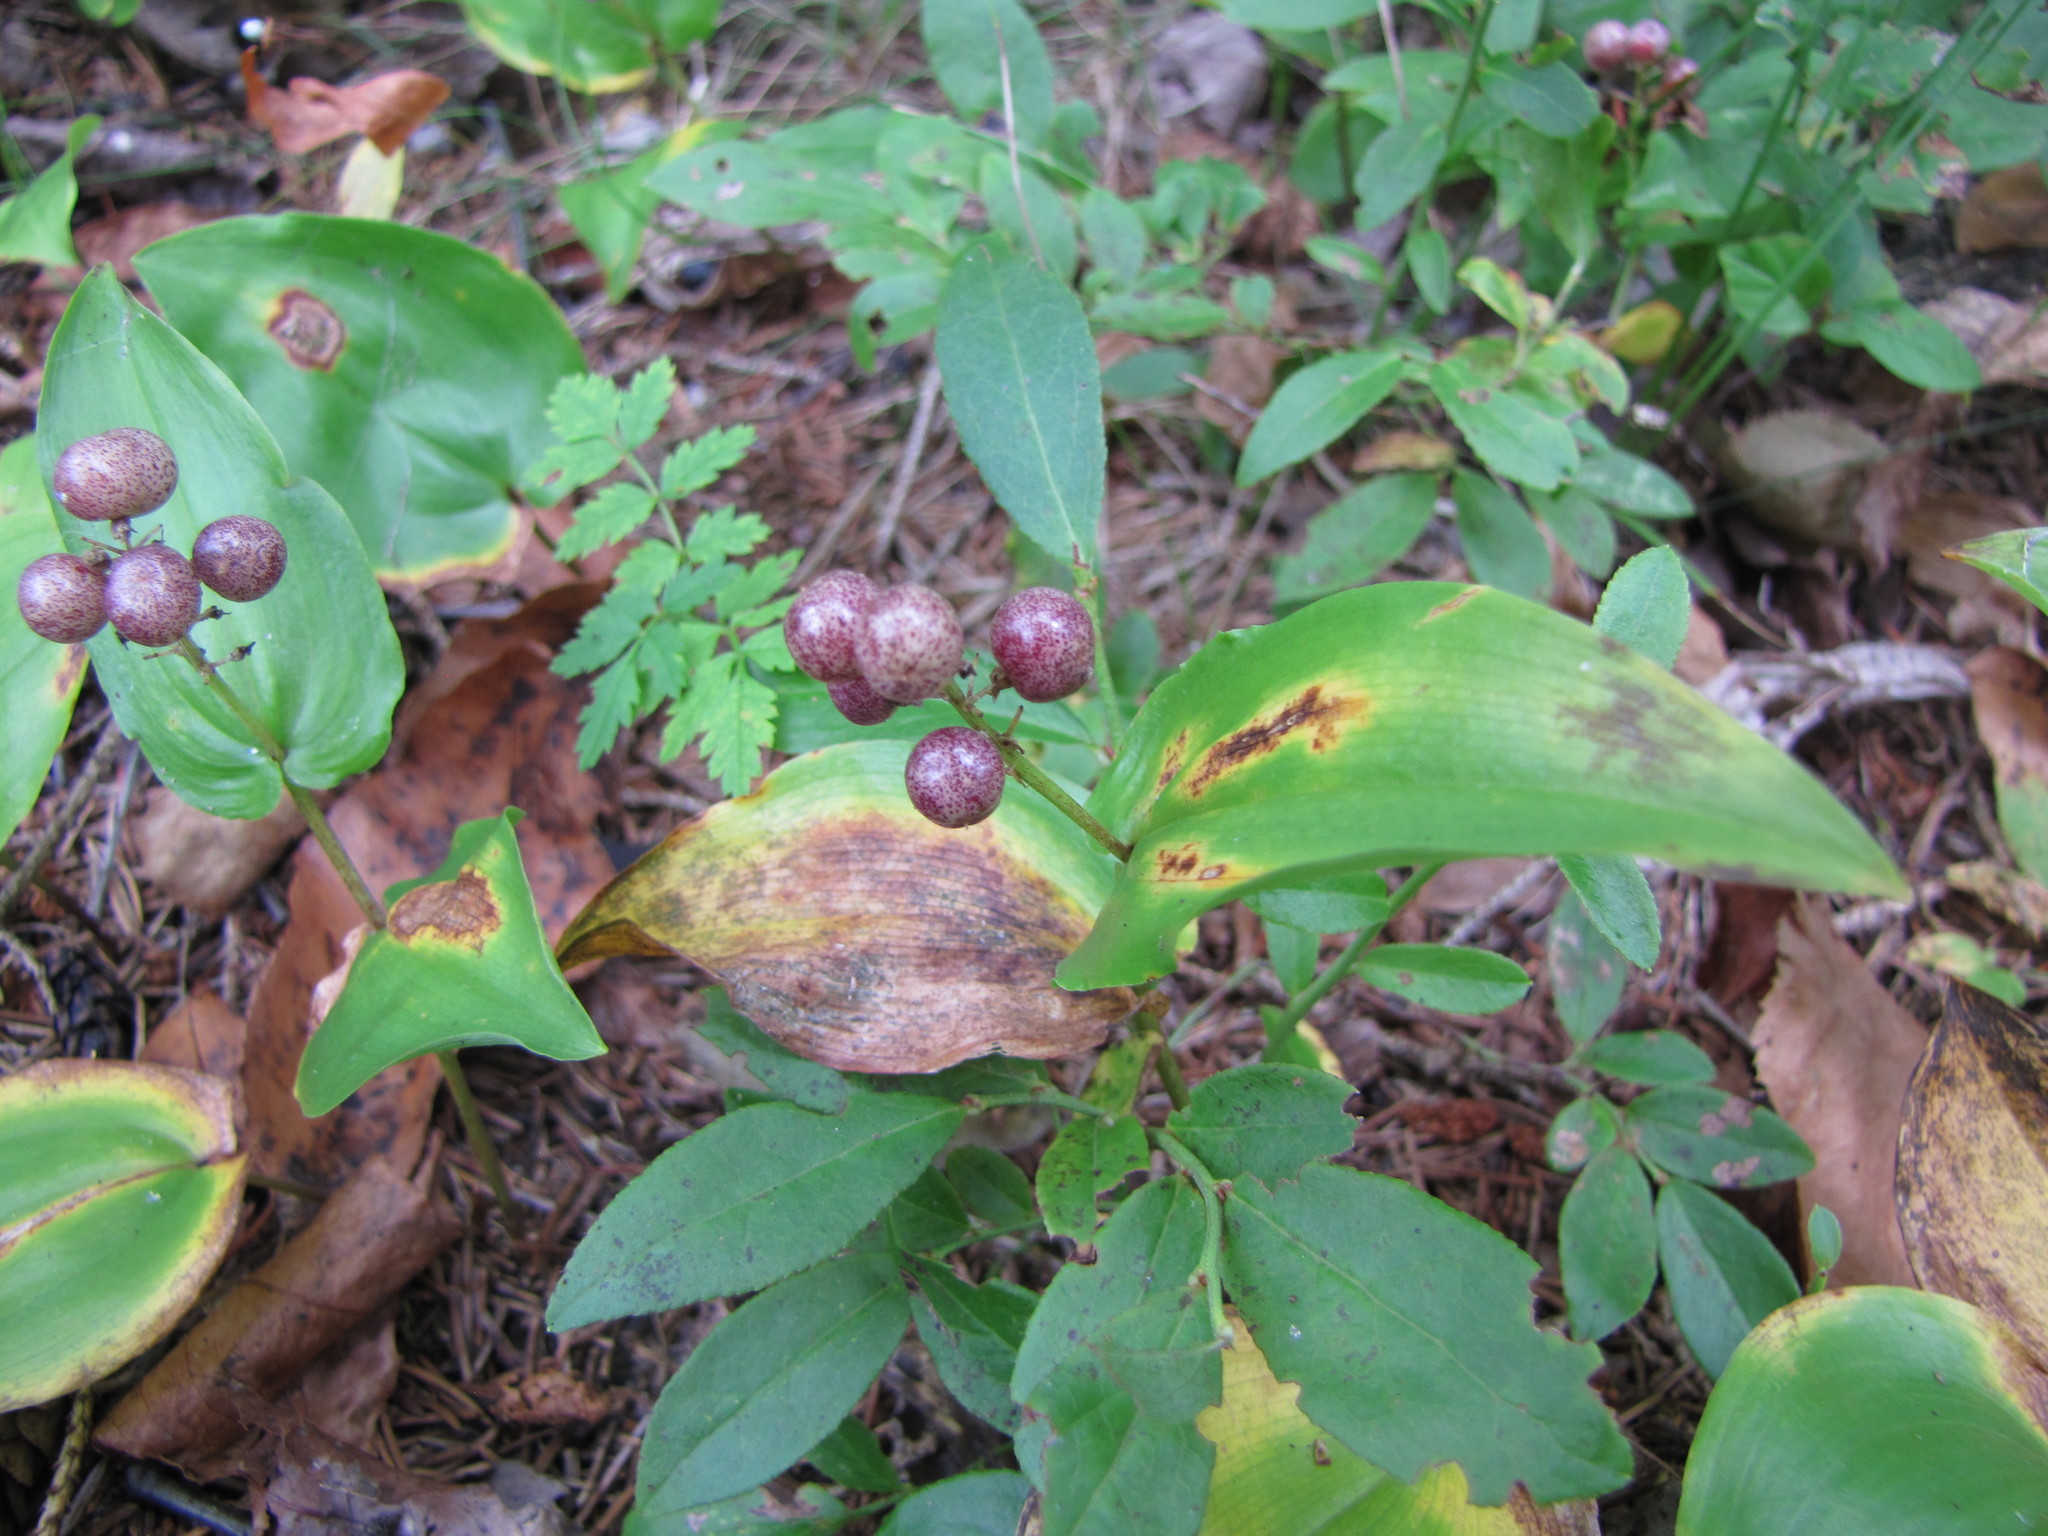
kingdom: Plantae
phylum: Tracheophyta
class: Liliopsida
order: Asparagales
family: Asparagaceae
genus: Maianthemum
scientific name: Maianthemum canadense
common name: False lily-of-the-valley
